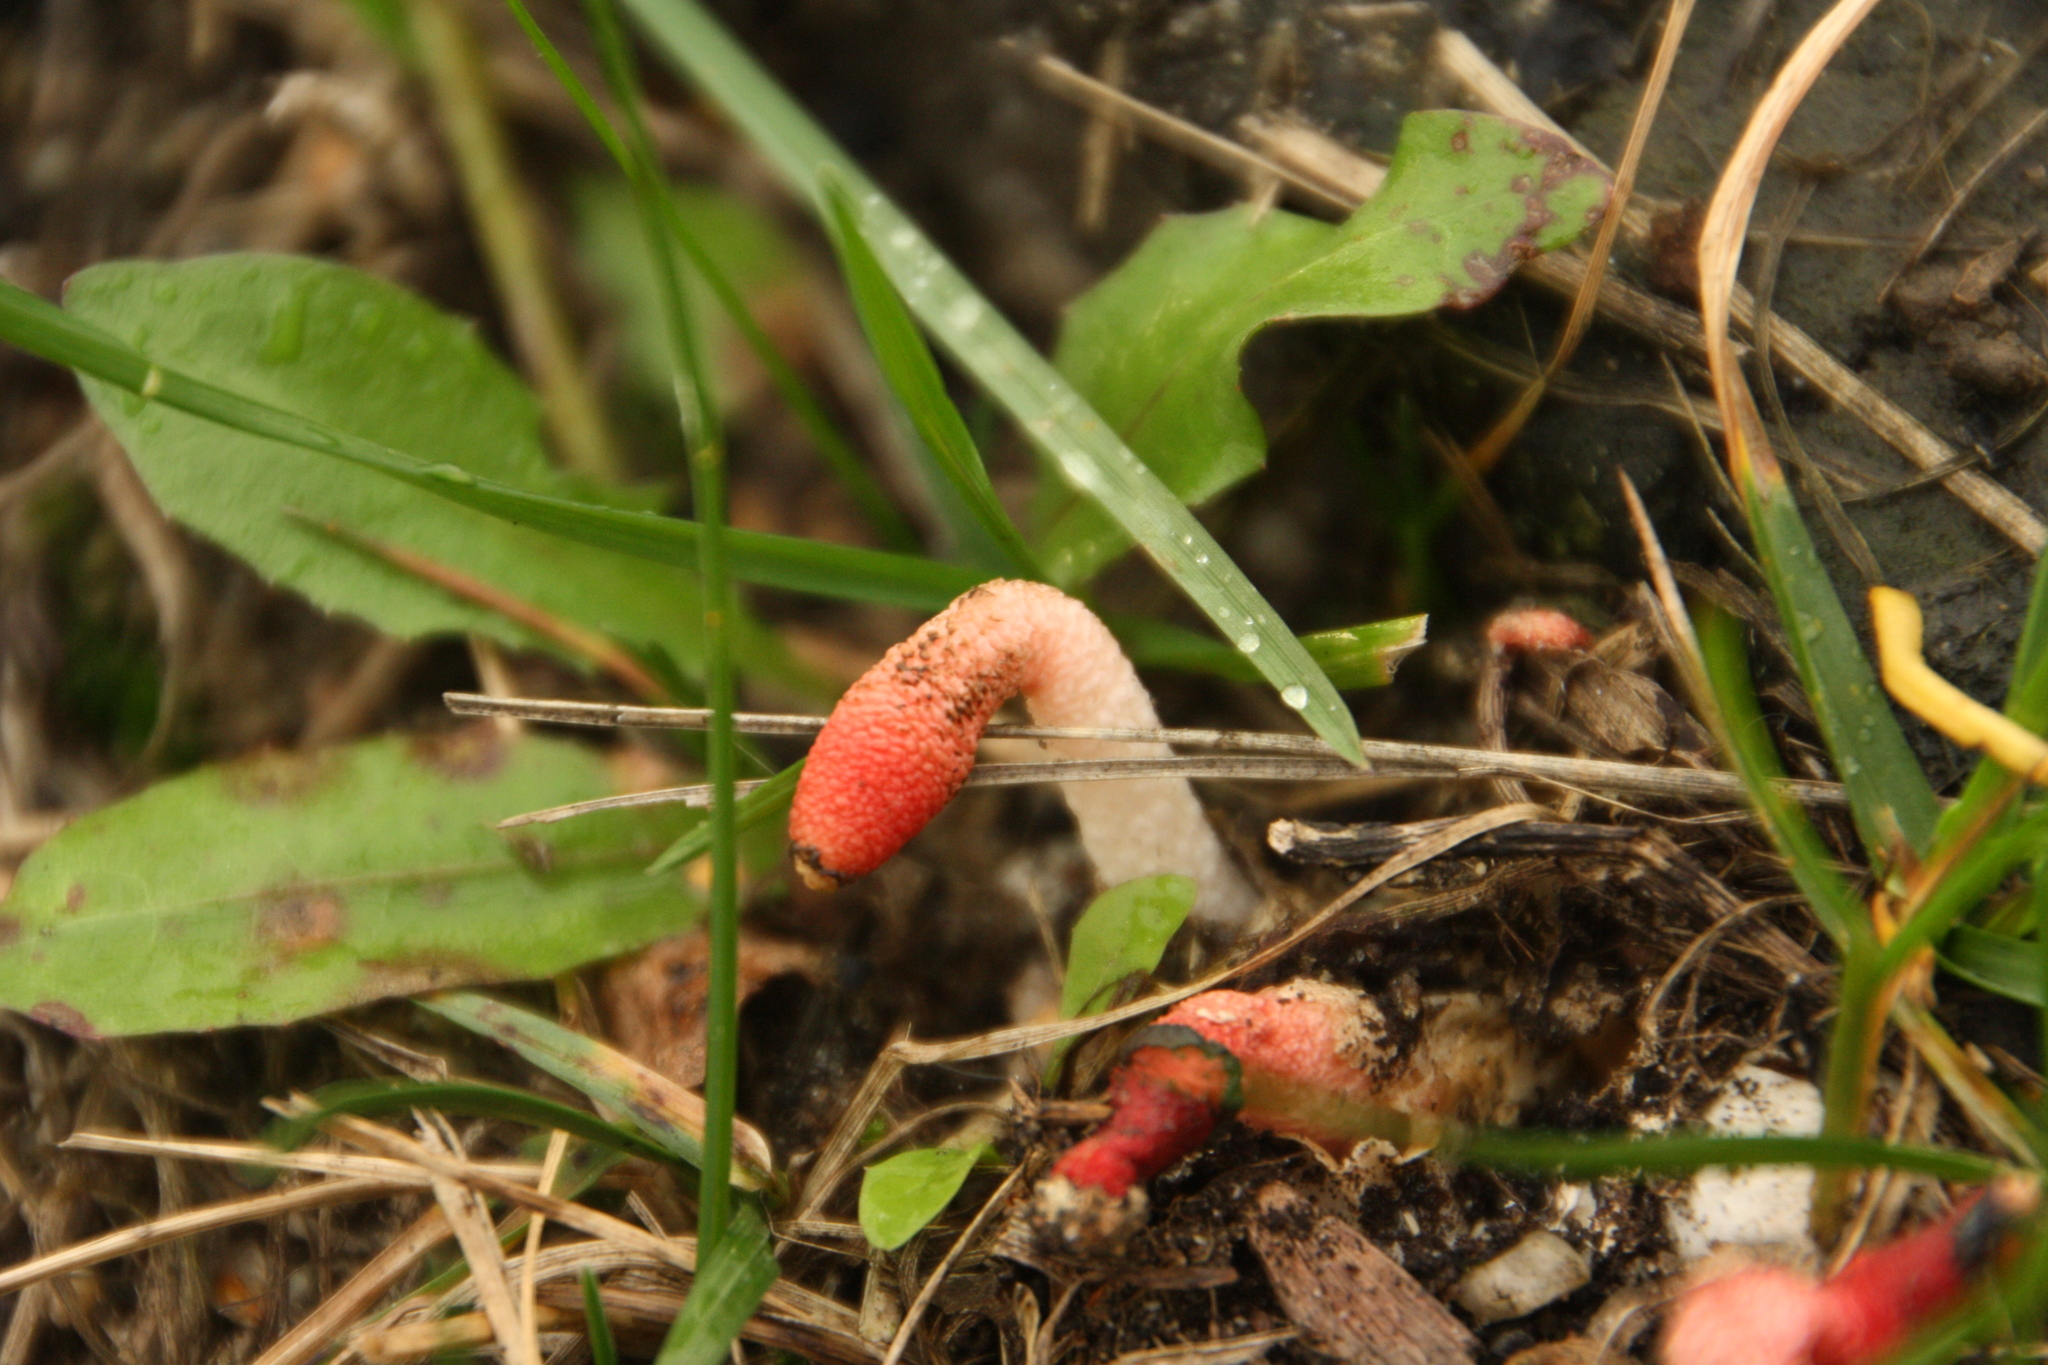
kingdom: Fungi
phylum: Basidiomycota
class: Agaricomycetes
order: Phallales
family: Phallaceae
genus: Mutinus
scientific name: Mutinus caninus
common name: Dog stinkhorn
